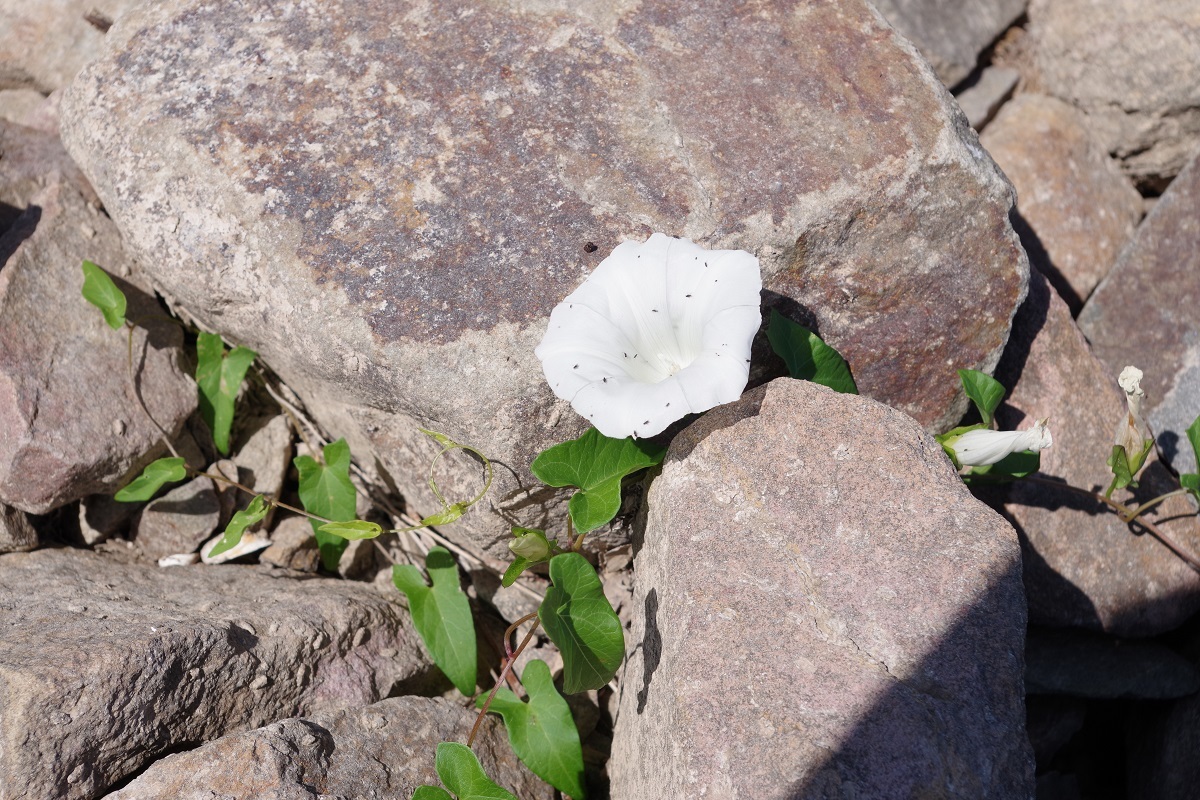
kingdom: Plantae
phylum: Tracheophyta
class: Magnoliopsida
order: Solanales
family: Convolvulaceae
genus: Calystegia
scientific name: Calystegia sepium
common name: Hedge bindweed
